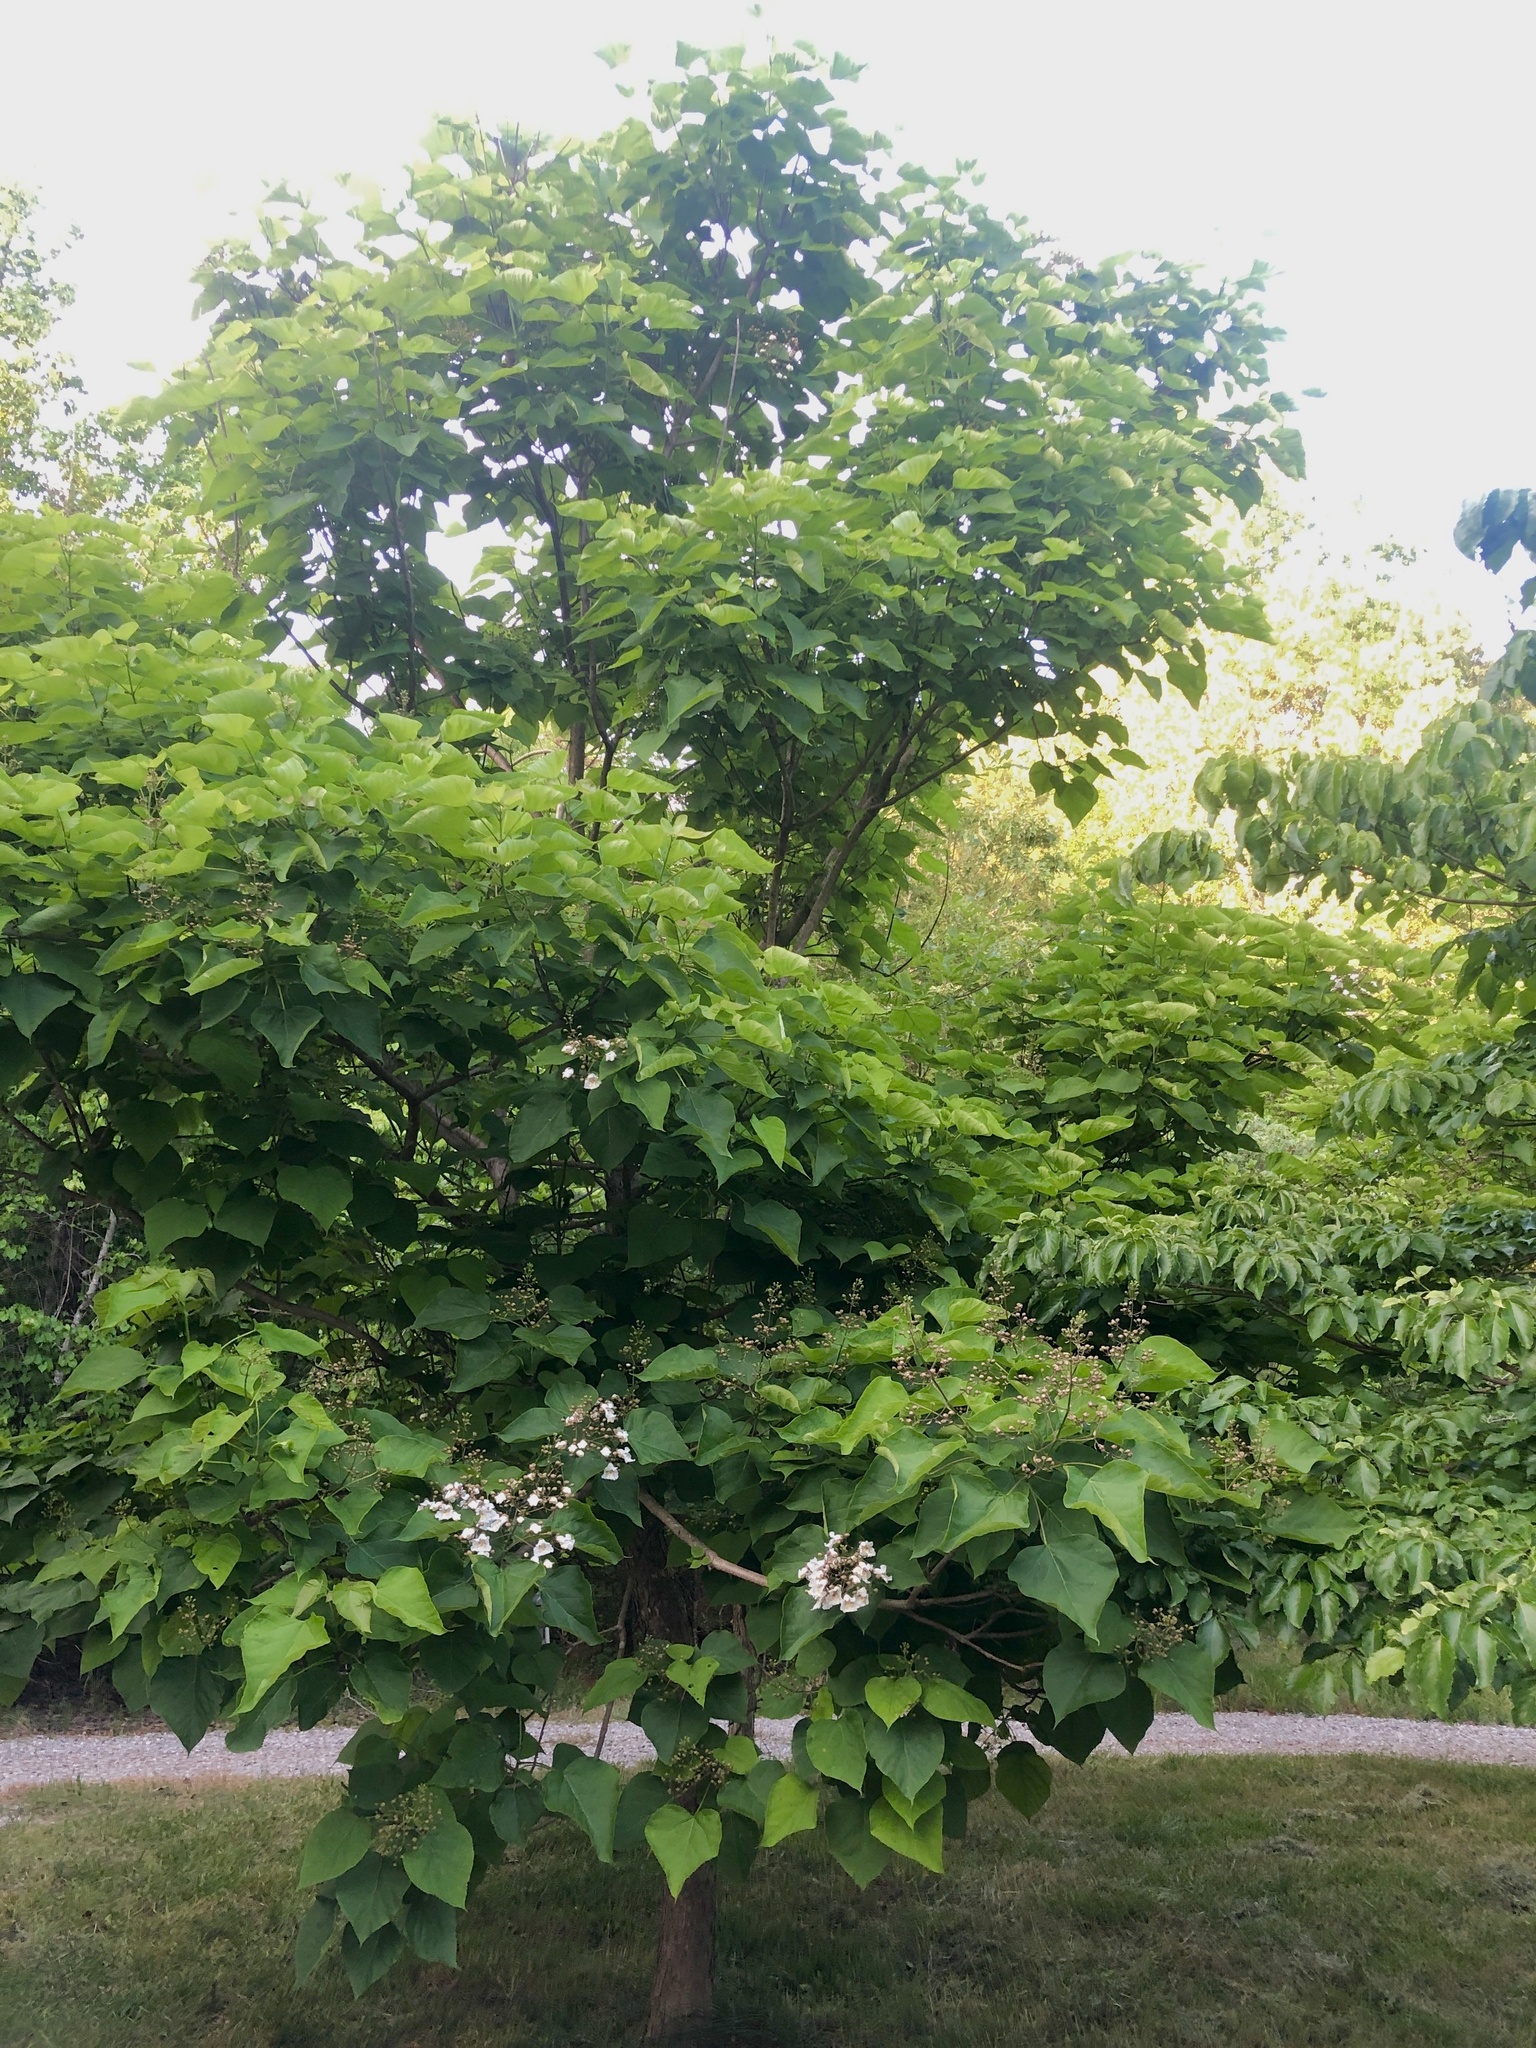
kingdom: Plantae
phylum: Tracheophyta
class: Magnoliopsida
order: Lamiales
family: Bignoniaceae
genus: Catalpa
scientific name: Catalpa bignonioides
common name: Southern catalpa
